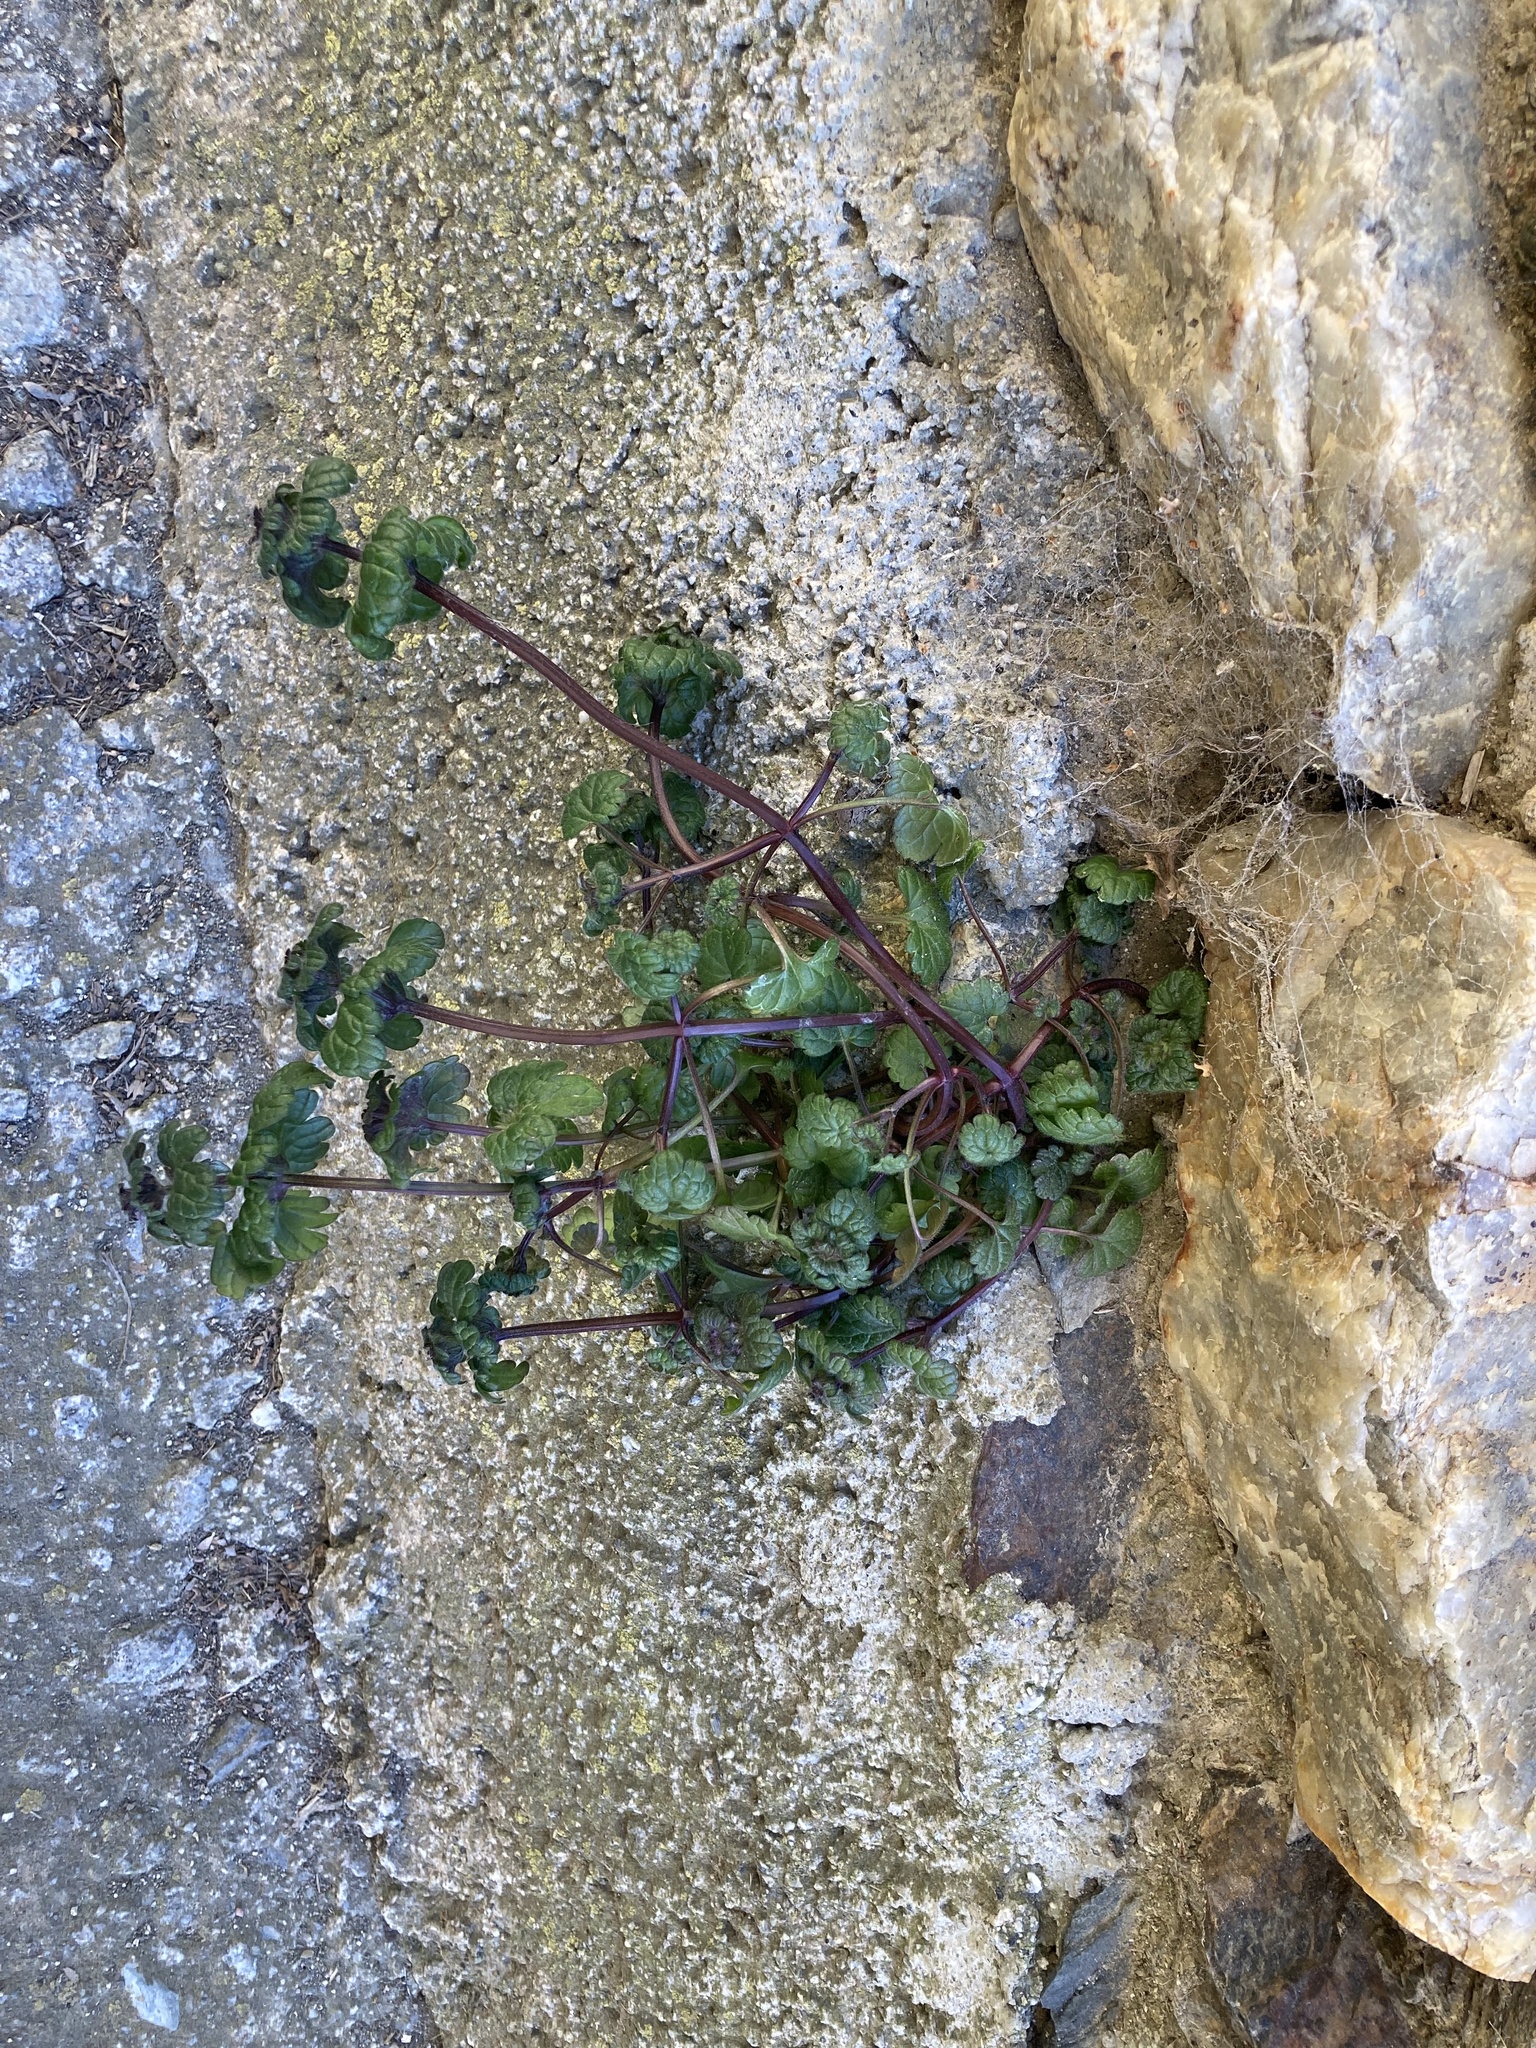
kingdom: Plantae
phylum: Tracheophyta
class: Magnoliopsida
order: Lamiales
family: Lamiaceae
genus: Lamium
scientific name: Lamium amplexicaule
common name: Henbit dead-nettle
